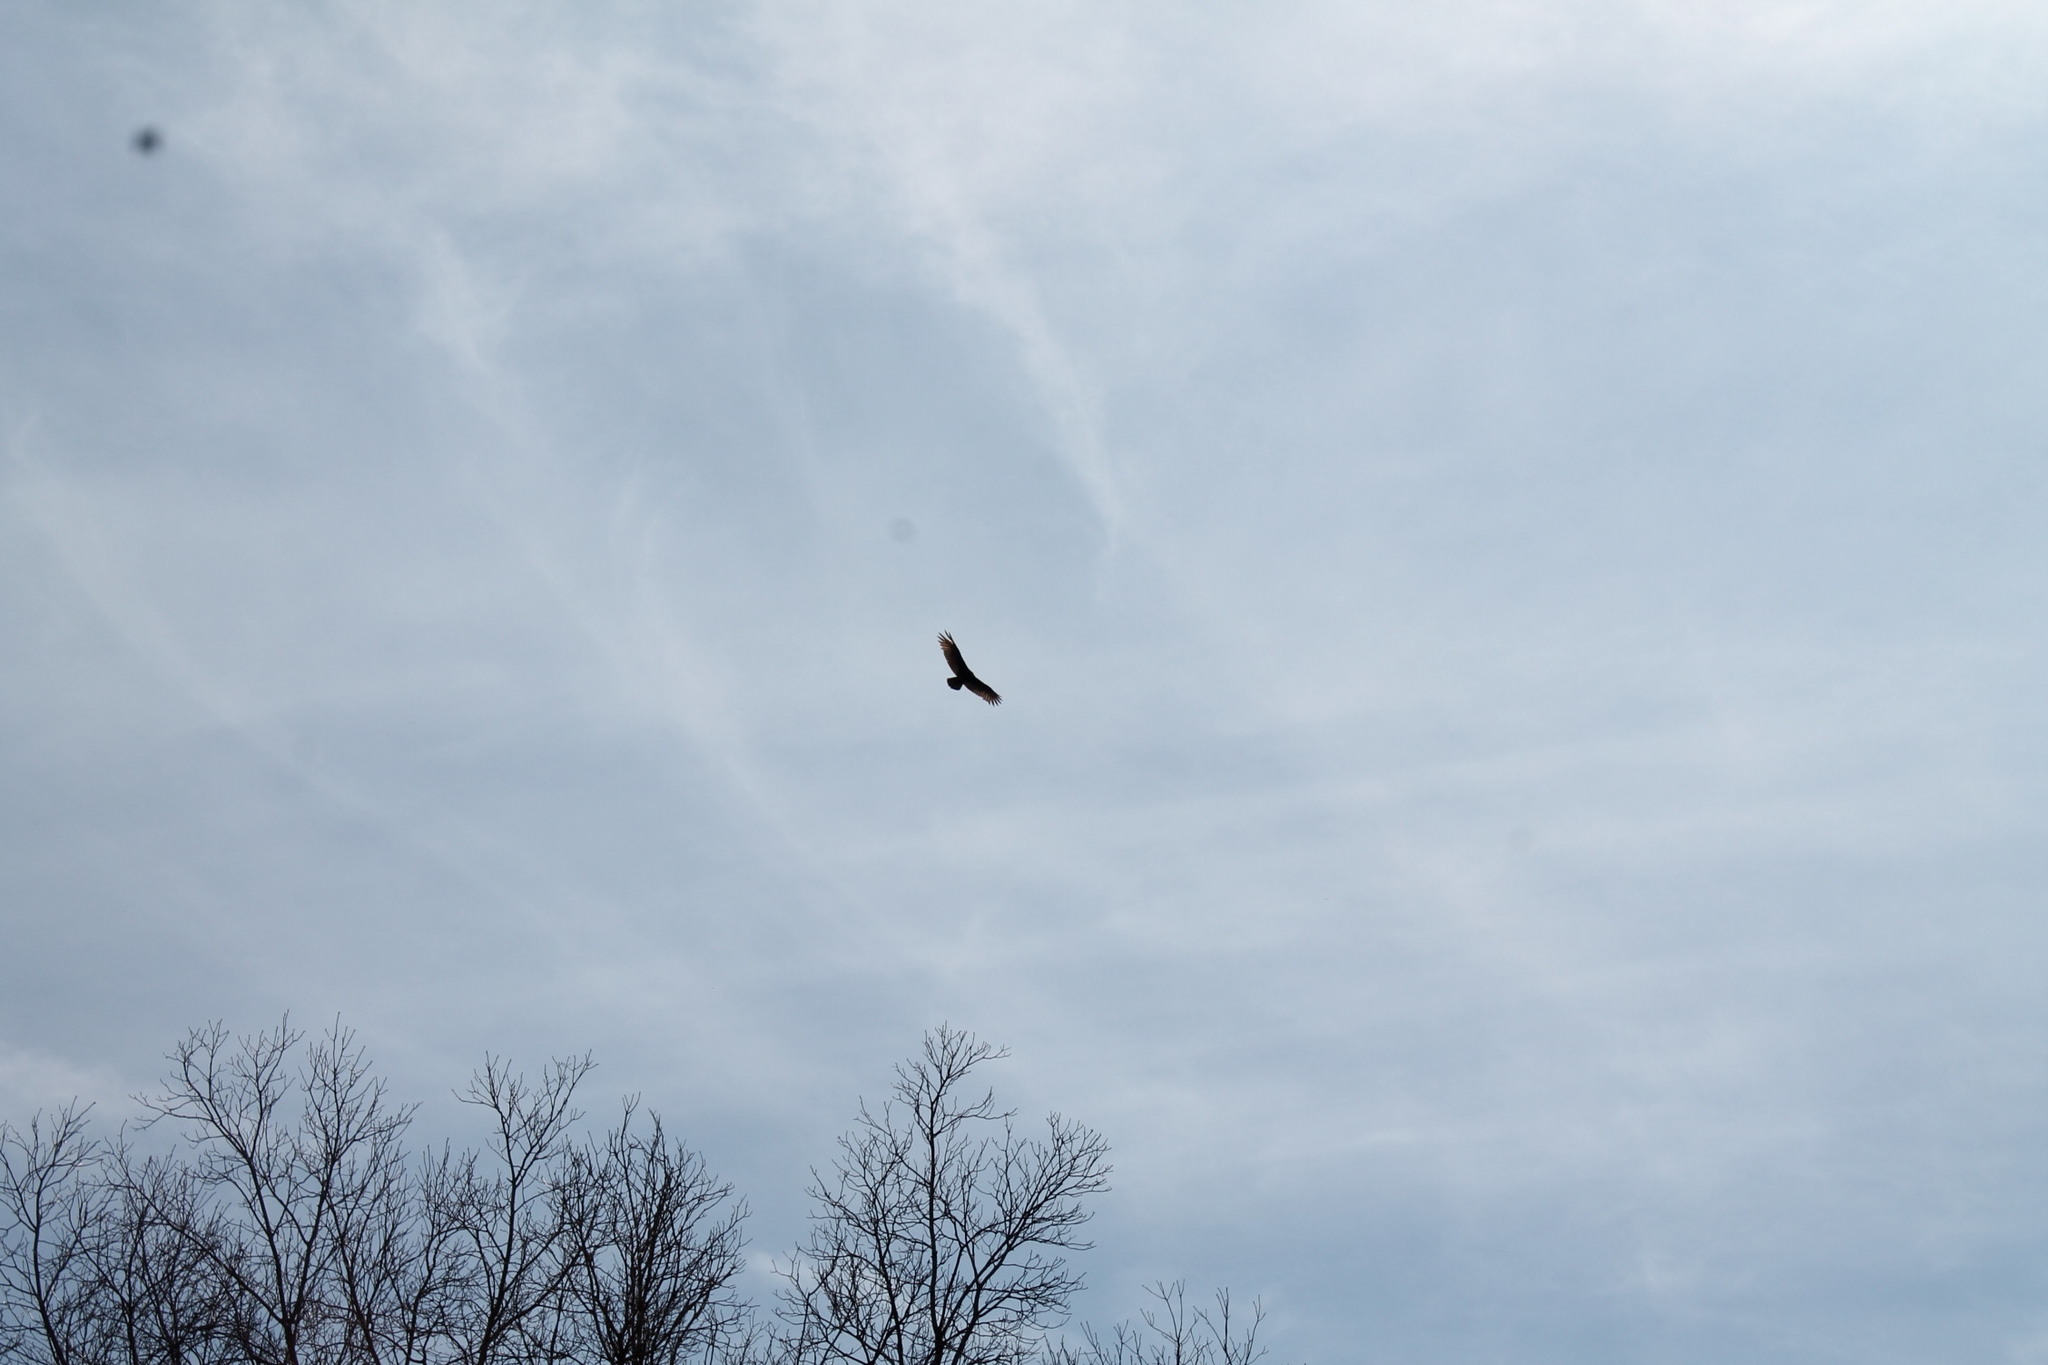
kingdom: Animalia
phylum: Chordata
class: Aves
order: Accipitriformes
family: Cathartidae
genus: Cathartes
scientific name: Cathartes aura
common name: Turkey vulture
